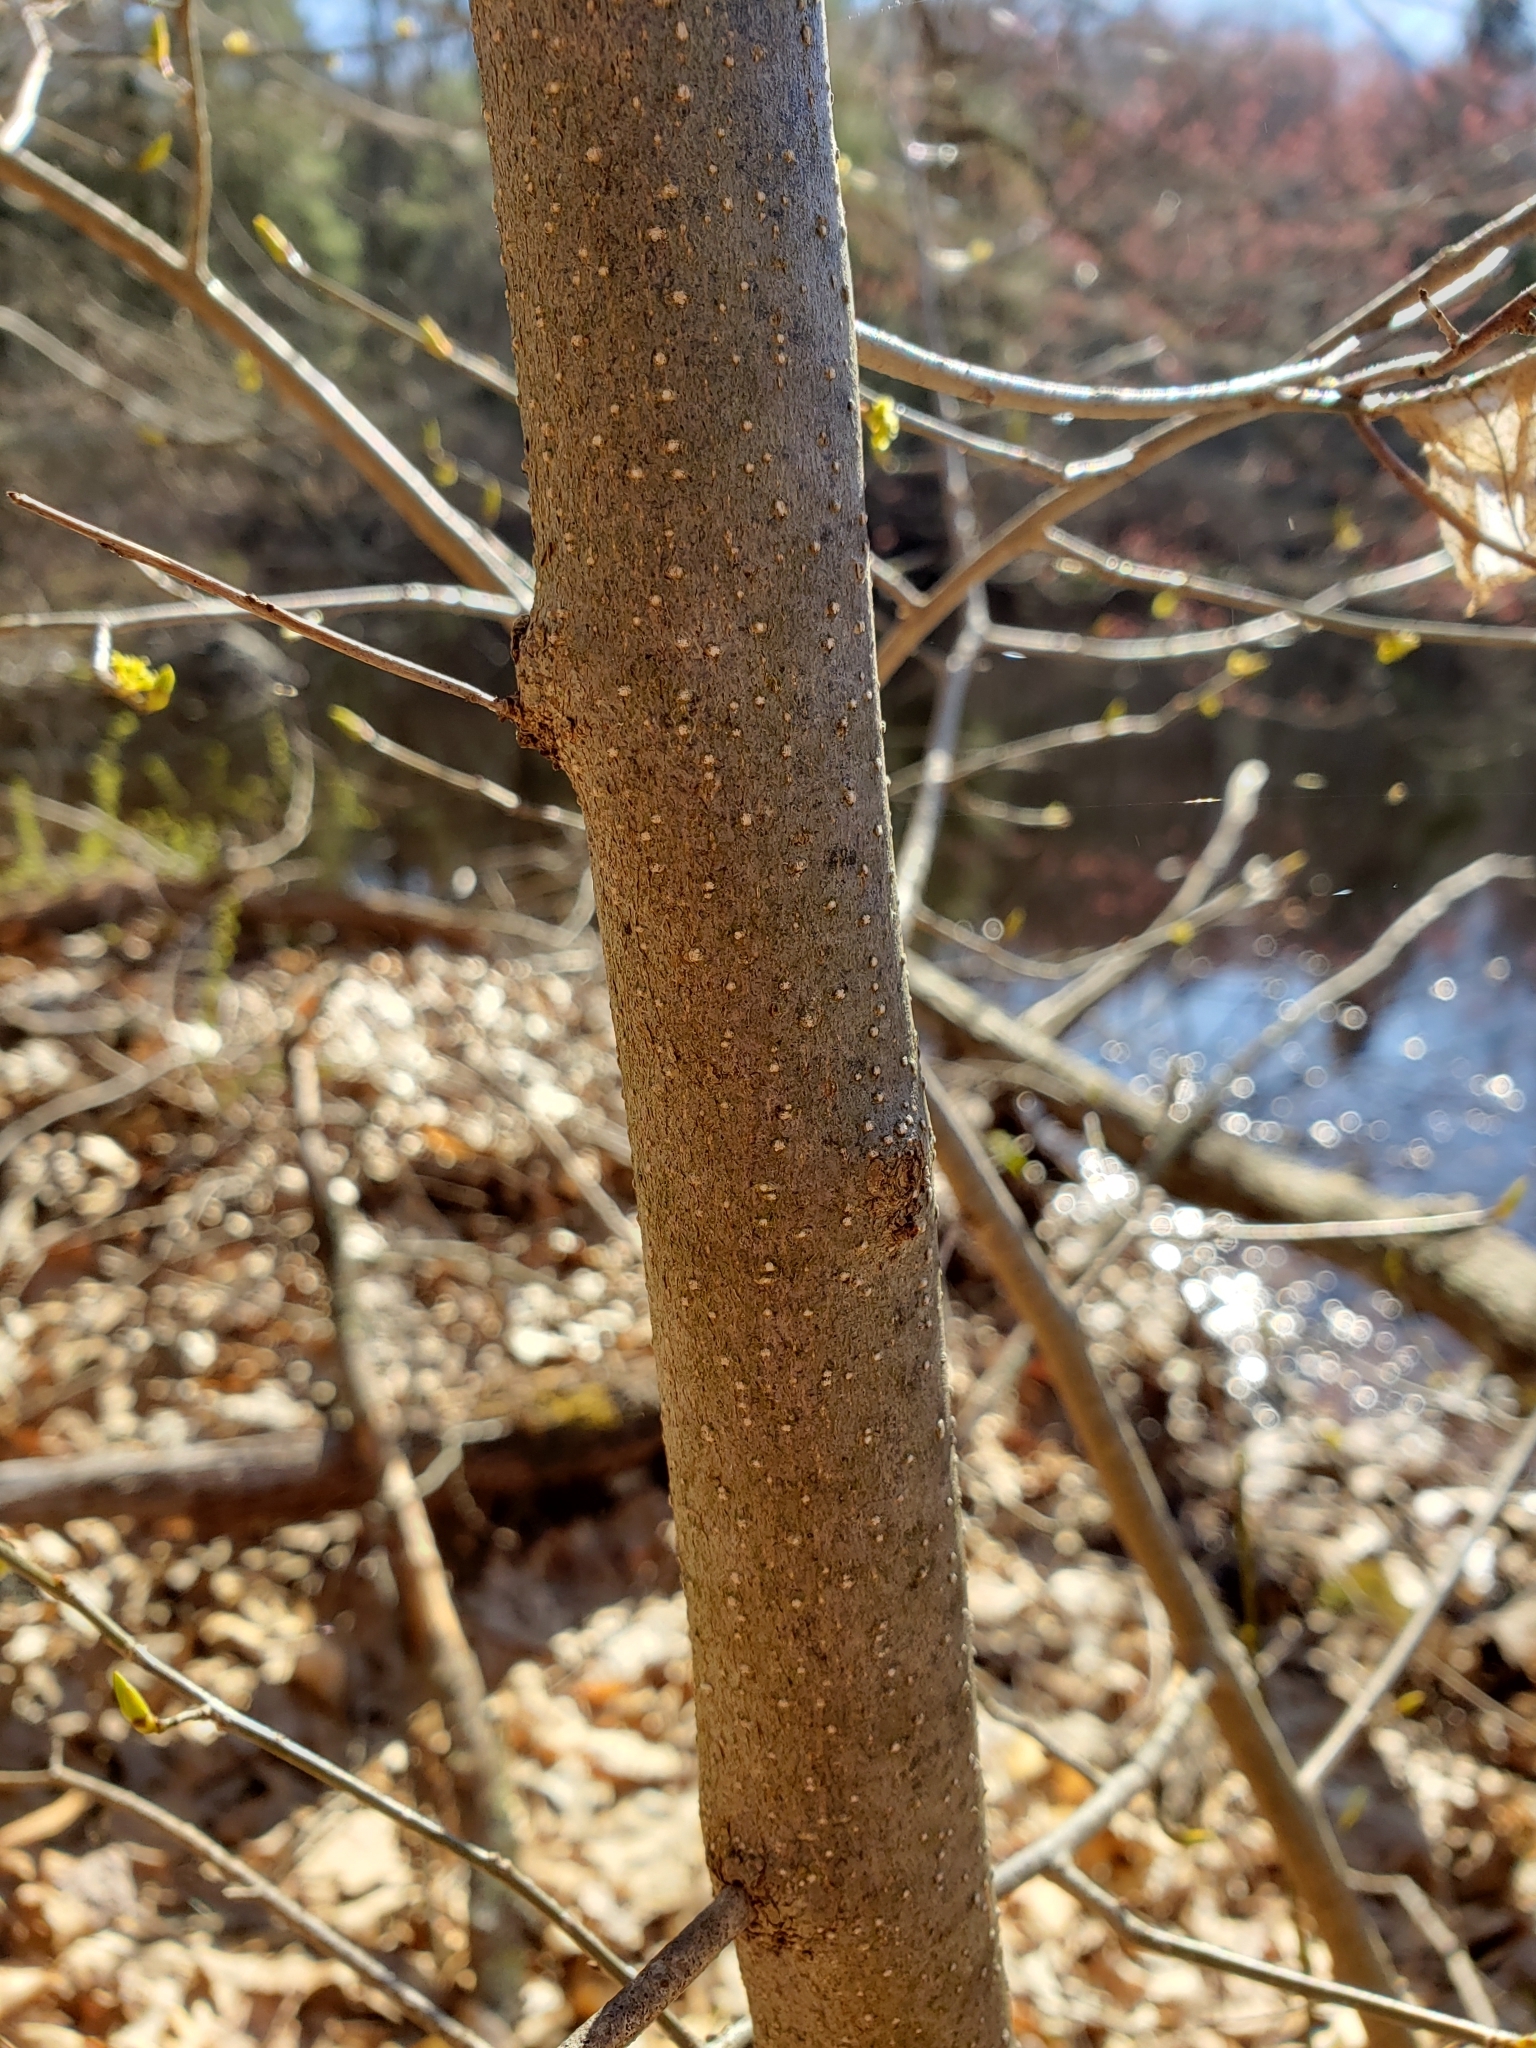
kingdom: Plantae
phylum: Tracheophyta
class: Magnoliopsida
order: Laurales
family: Lauraceae
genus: Lindera
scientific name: Lindera benzoin
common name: Spicebush
